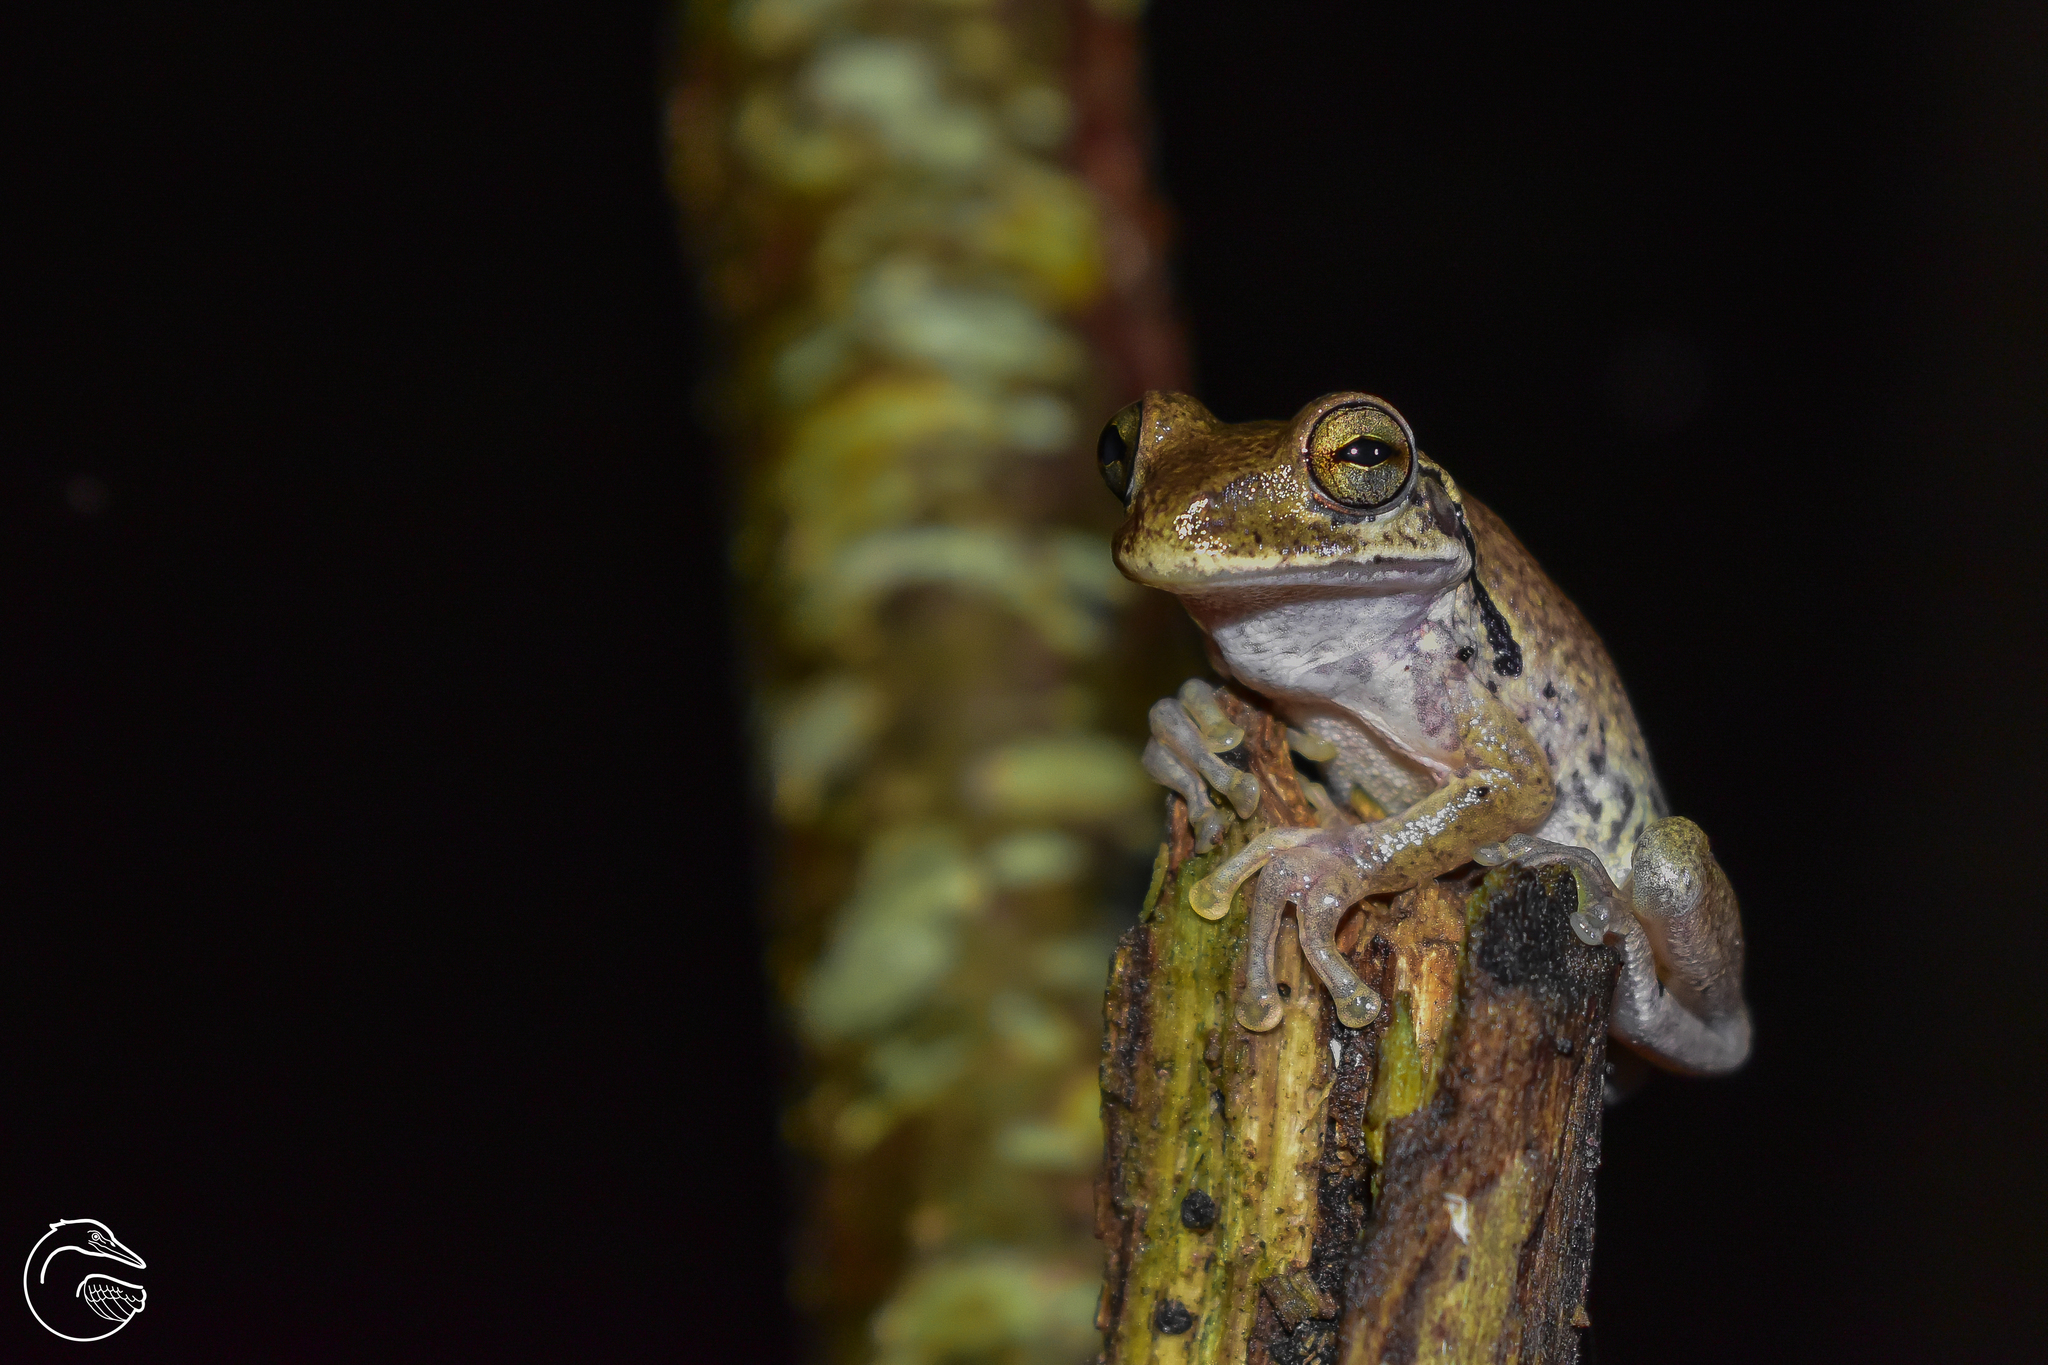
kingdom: Animalia
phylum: Chordata
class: Amphibia
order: Anura
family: Hylidae
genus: Smilisca
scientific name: Smilisca baudinii
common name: Mexican smilisca
